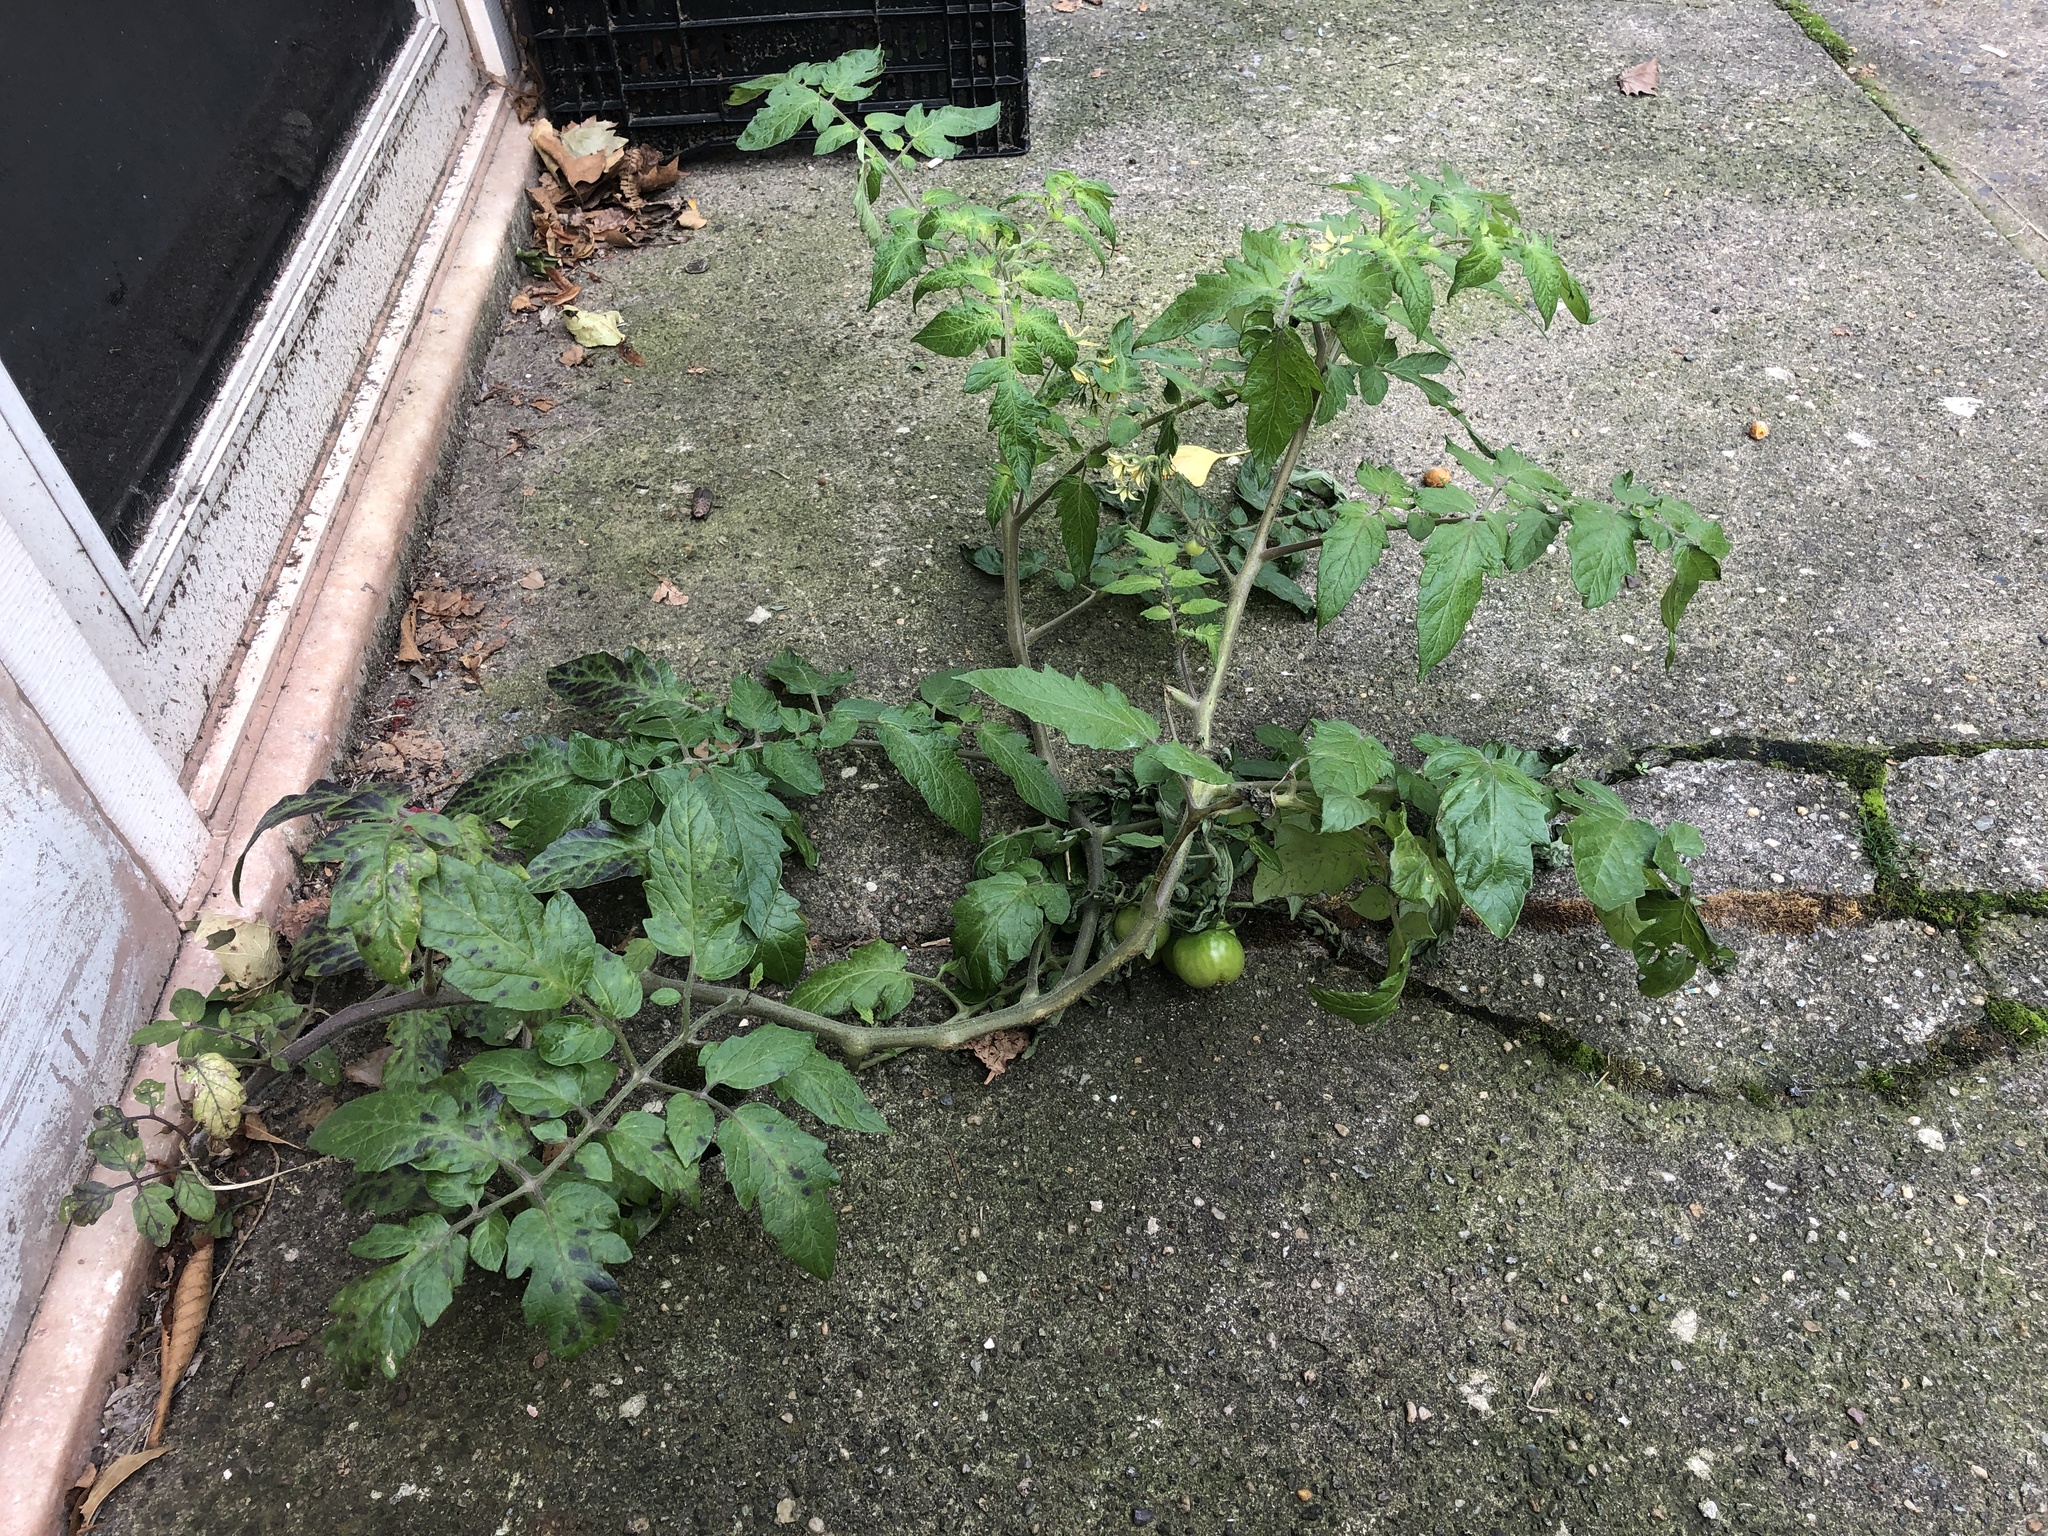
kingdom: Plantae
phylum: Tracheophyta
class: Magnoliopsida
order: Solanales
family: Solanaceae
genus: Solanum
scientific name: Solanum lycopersicum
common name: Garden tomato
